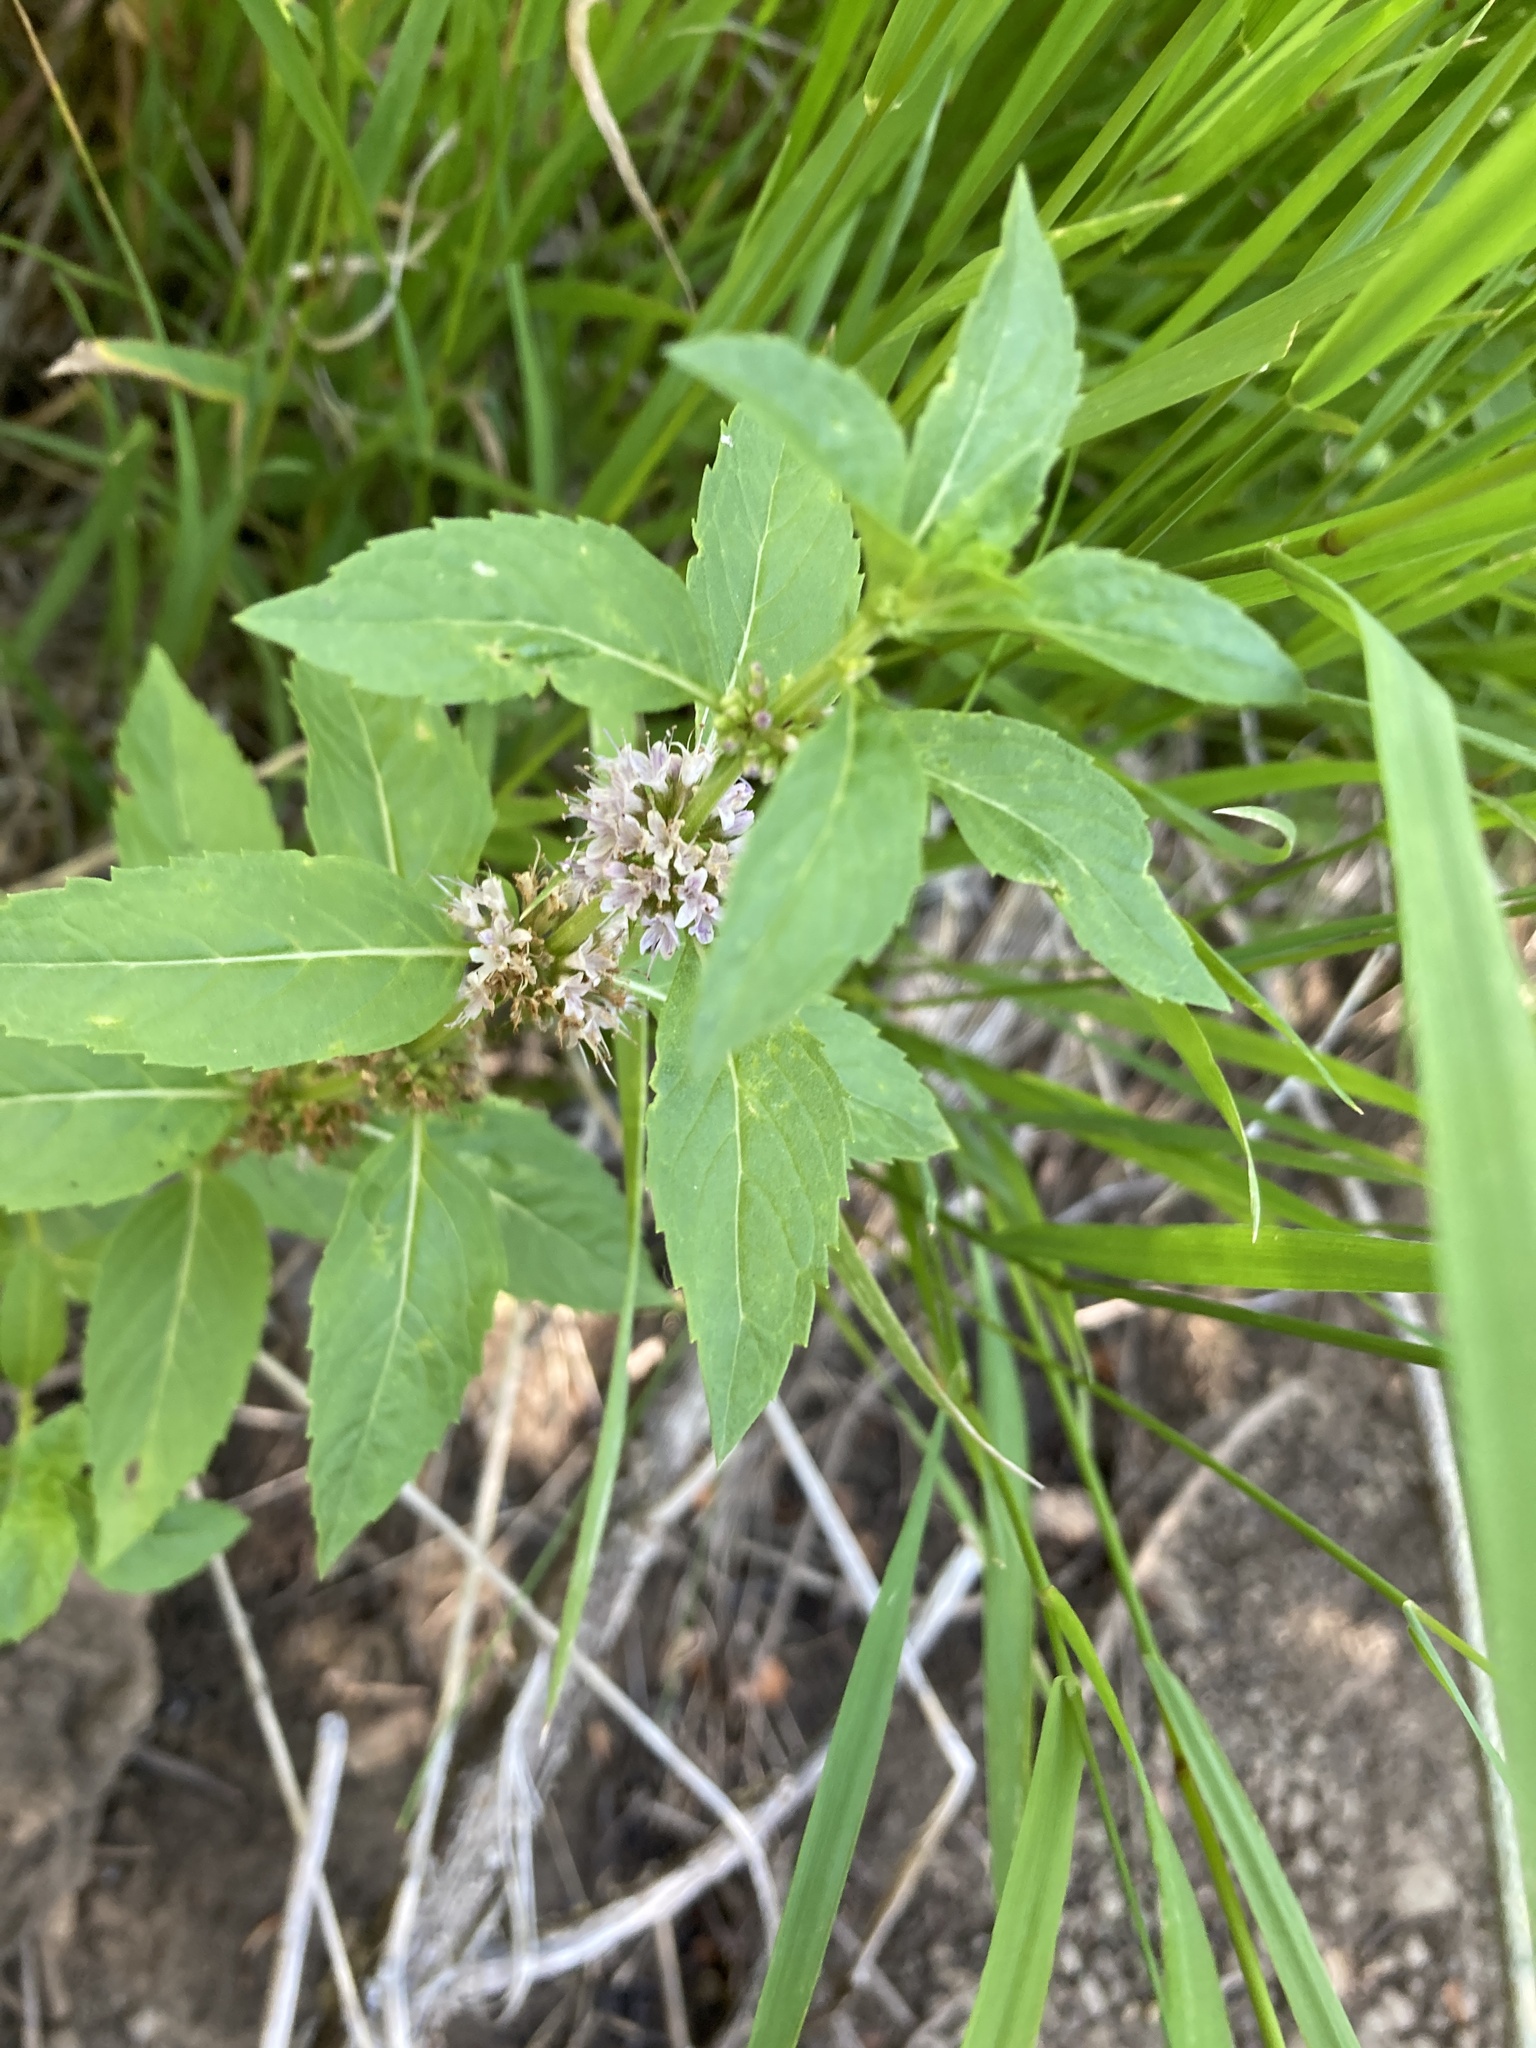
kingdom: Plantae
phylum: Tracheophyta
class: Magnoliopsida
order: Lamiales
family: Lamiaceae
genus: Mentha
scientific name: Mentha canadensis
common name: American corn mint
